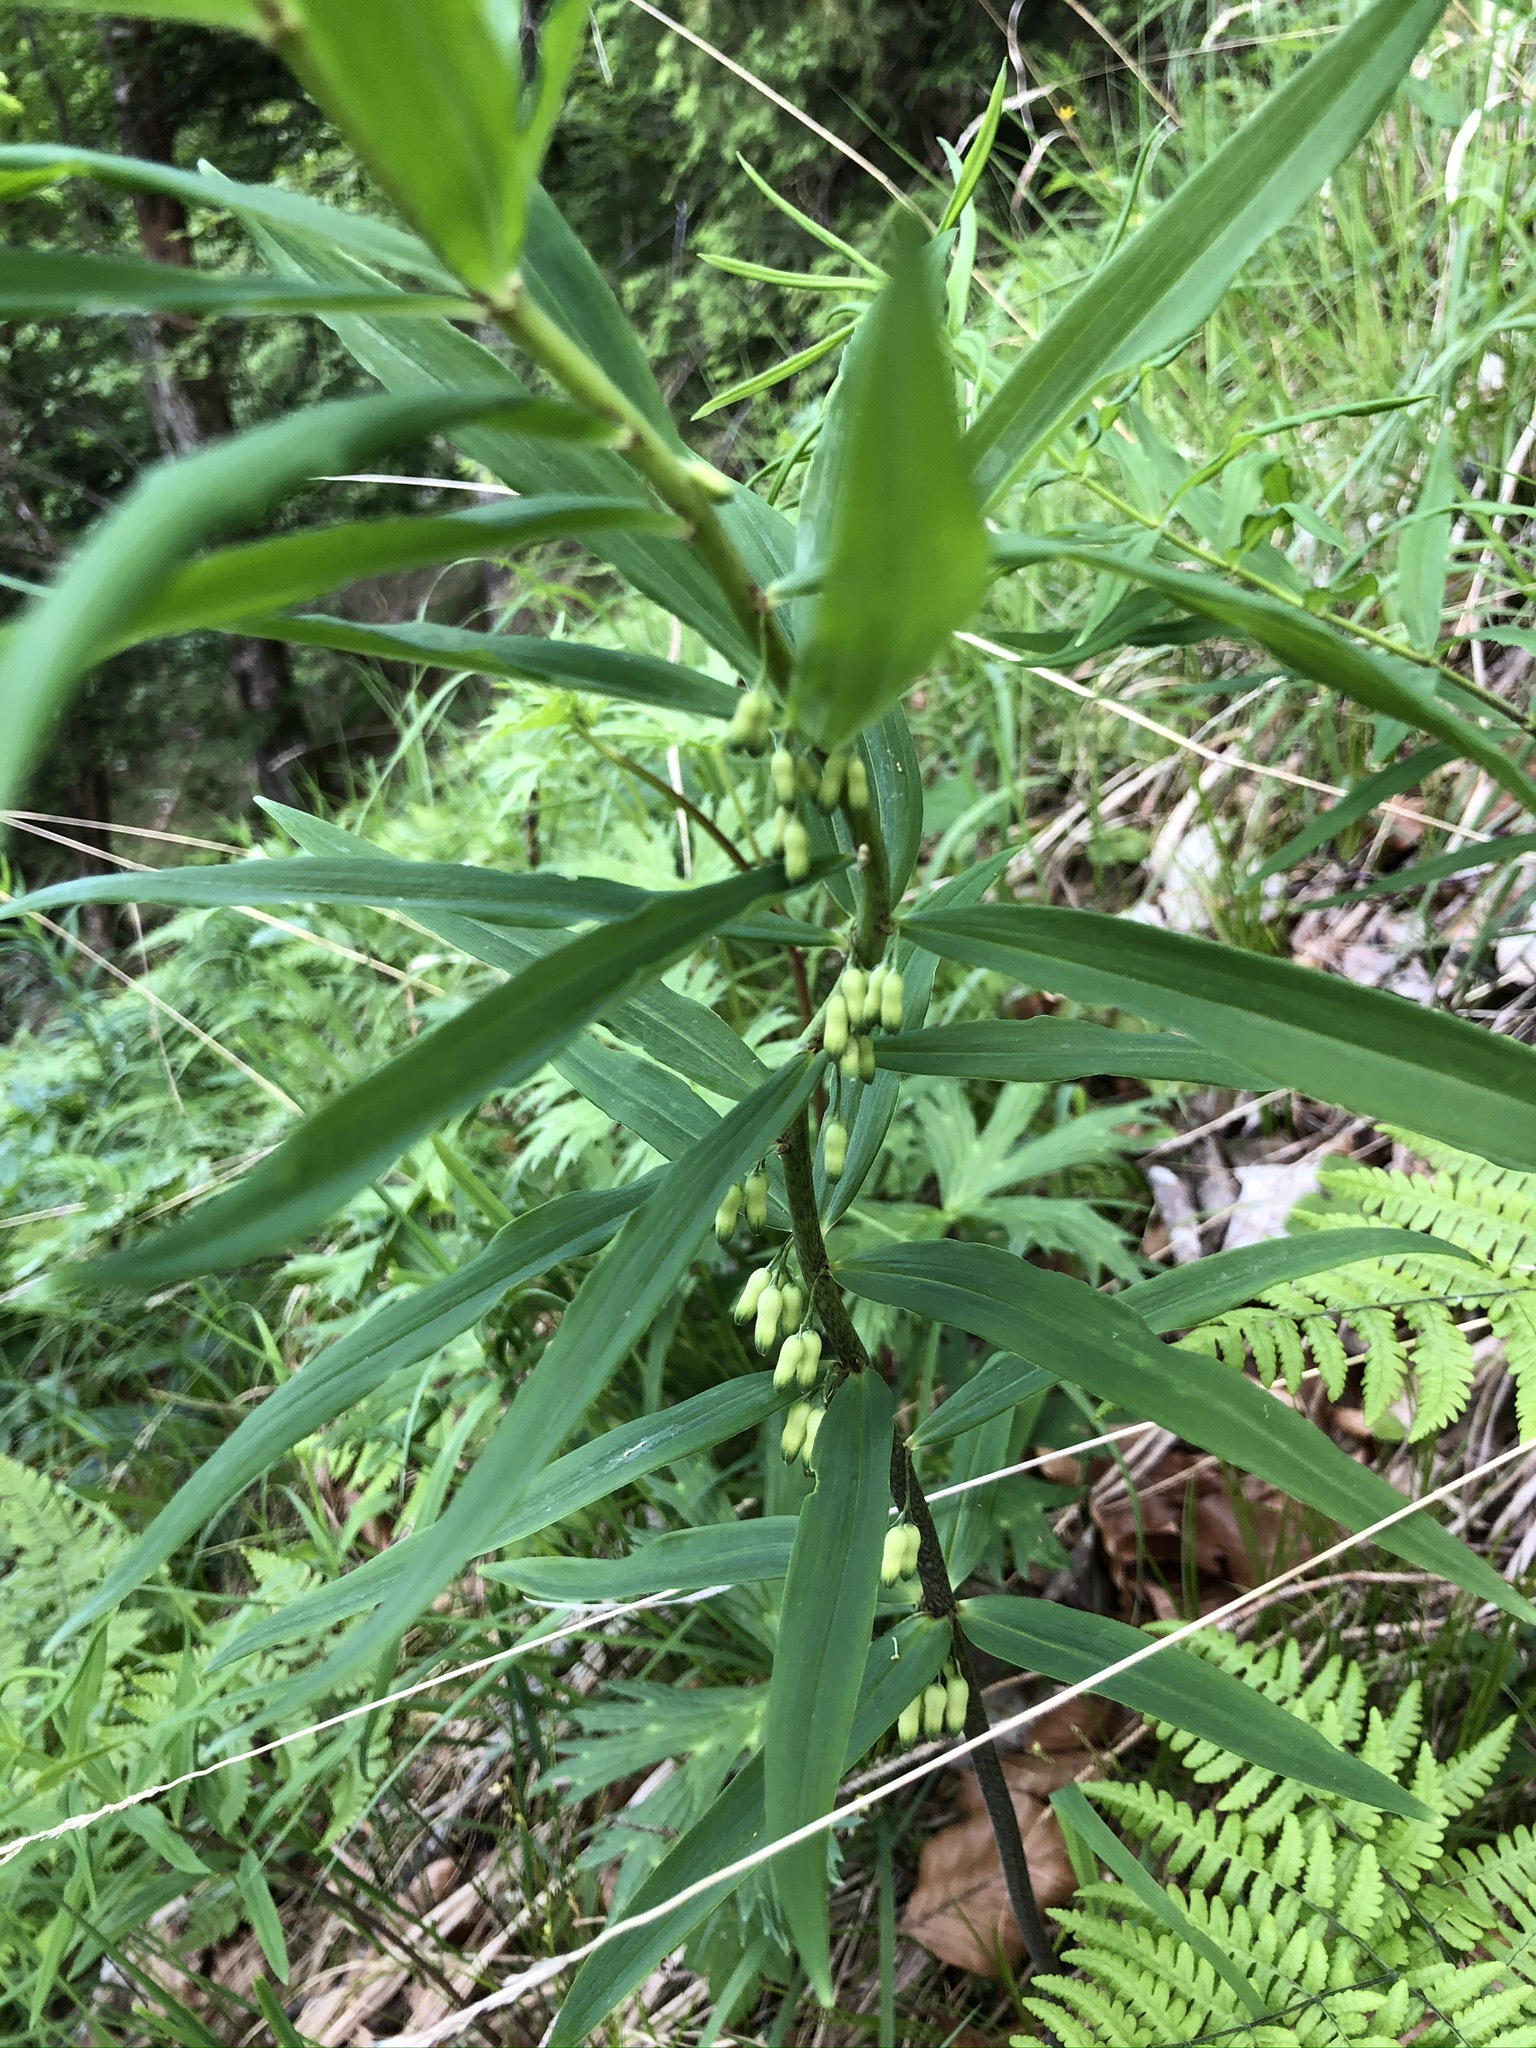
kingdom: Plantae
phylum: Tracheophyta
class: Liliopsida
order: Asparagales
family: Asparagaceae
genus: Polygonatum
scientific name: Polygonatum verticillatum
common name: Whorled solomon's-seal
